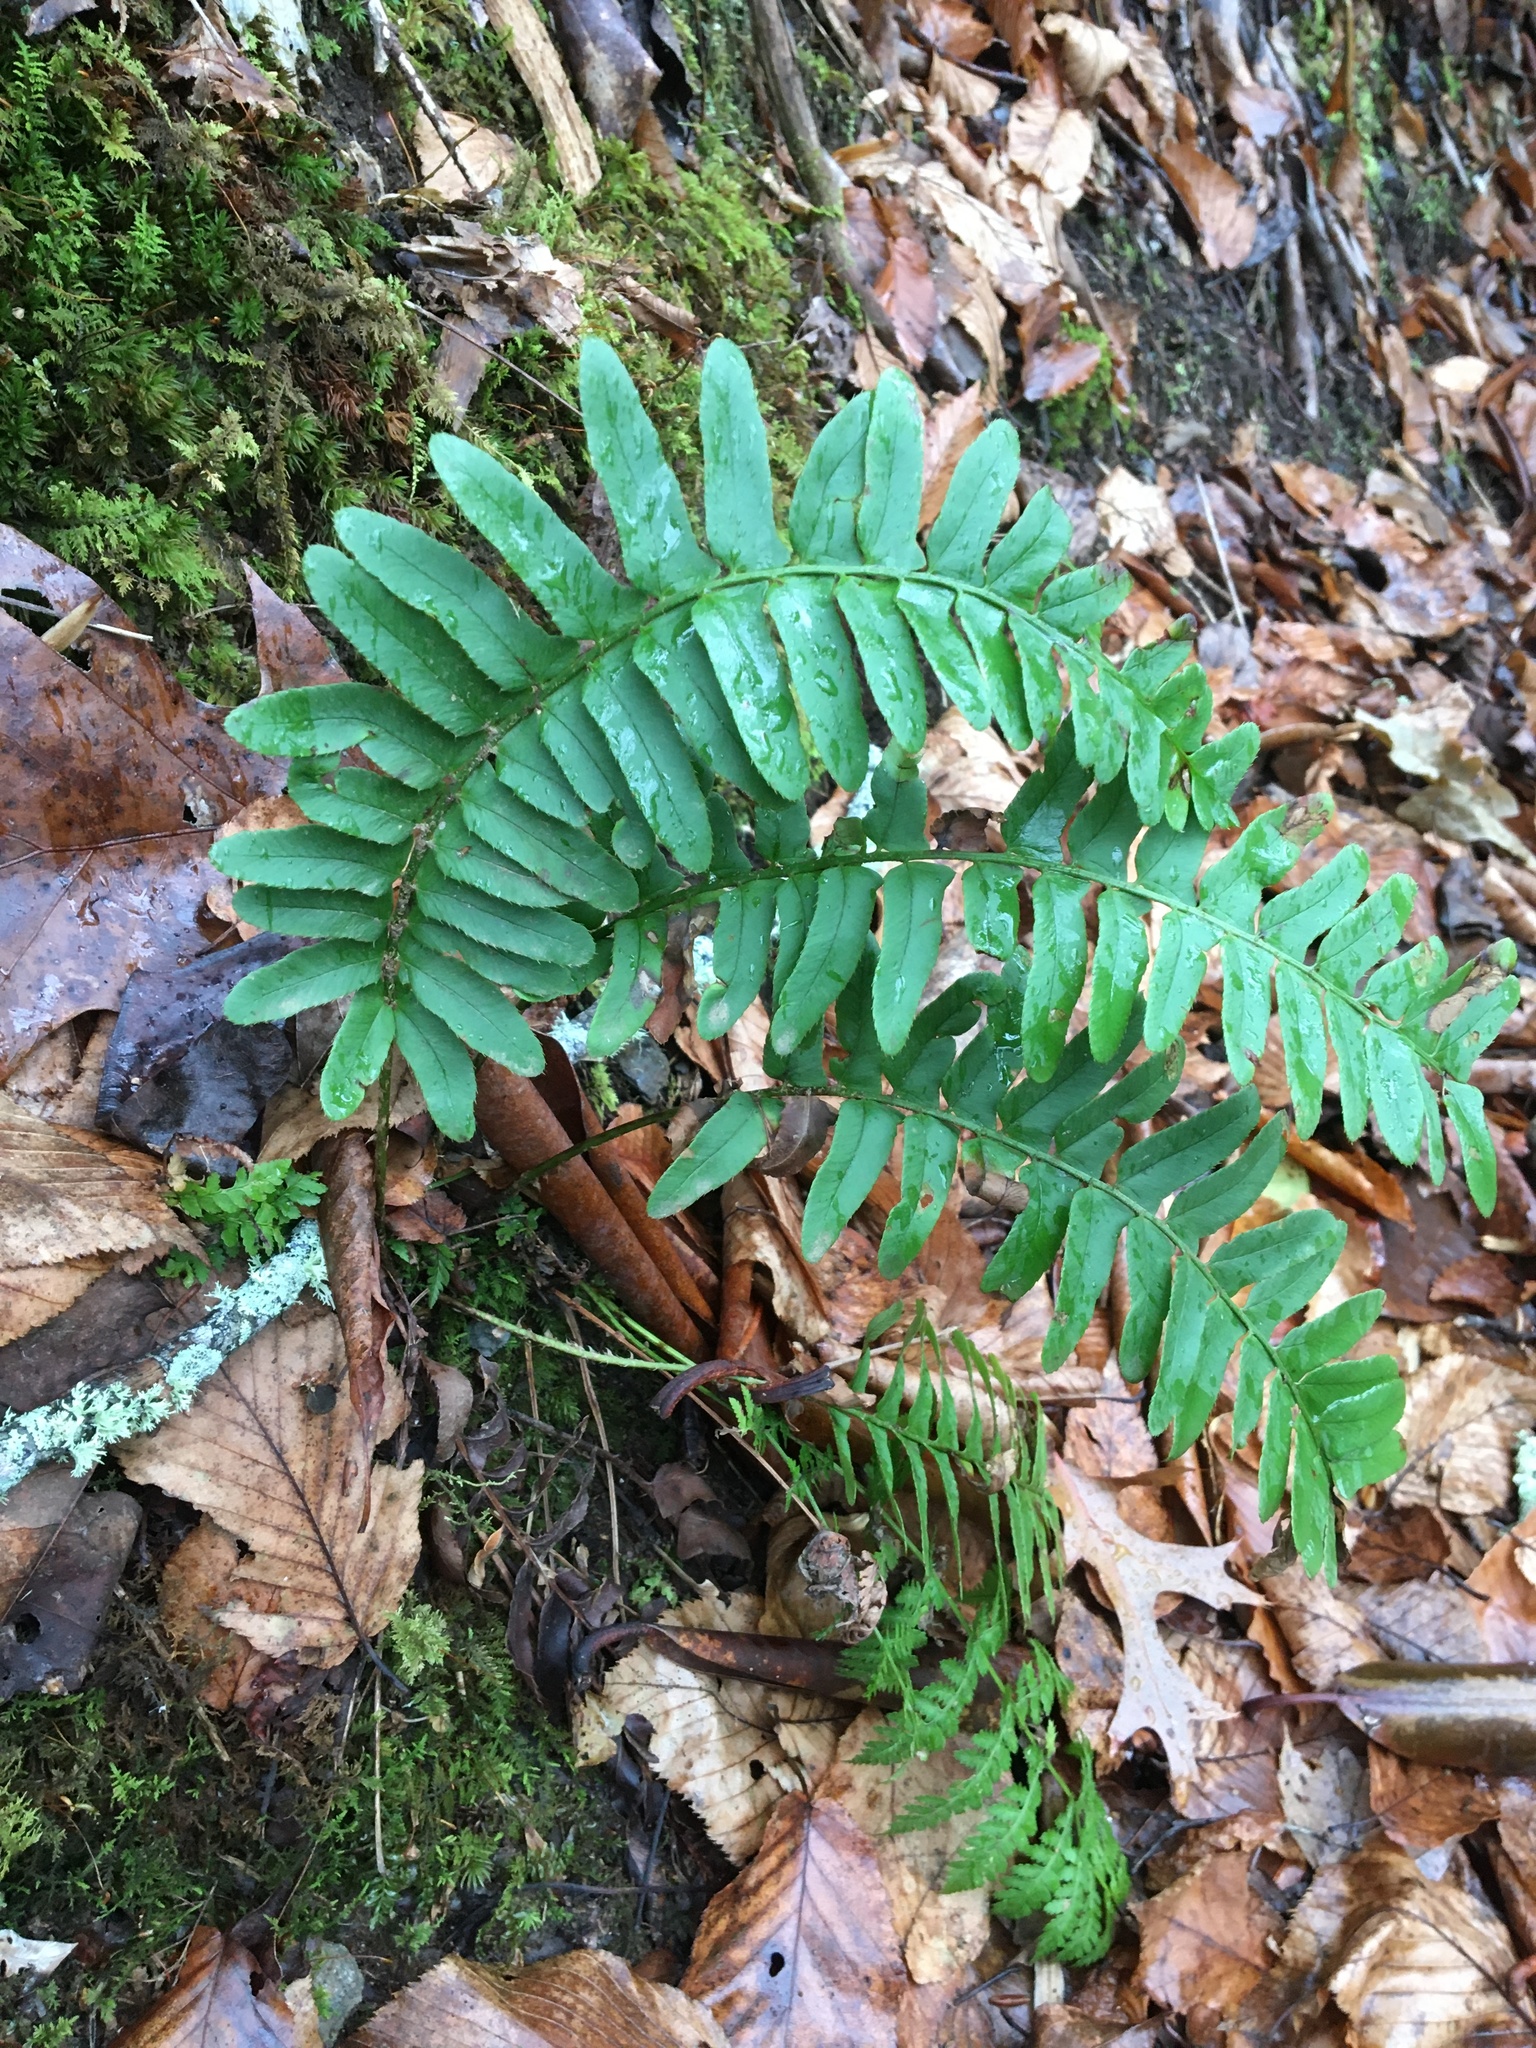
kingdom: Plantae
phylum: Tracheophyta
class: Polypodiopsida
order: Polypodiales
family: Dryopteridaceae
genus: Polystichum
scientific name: Polystichum acrostichoides
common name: Christmas fern
